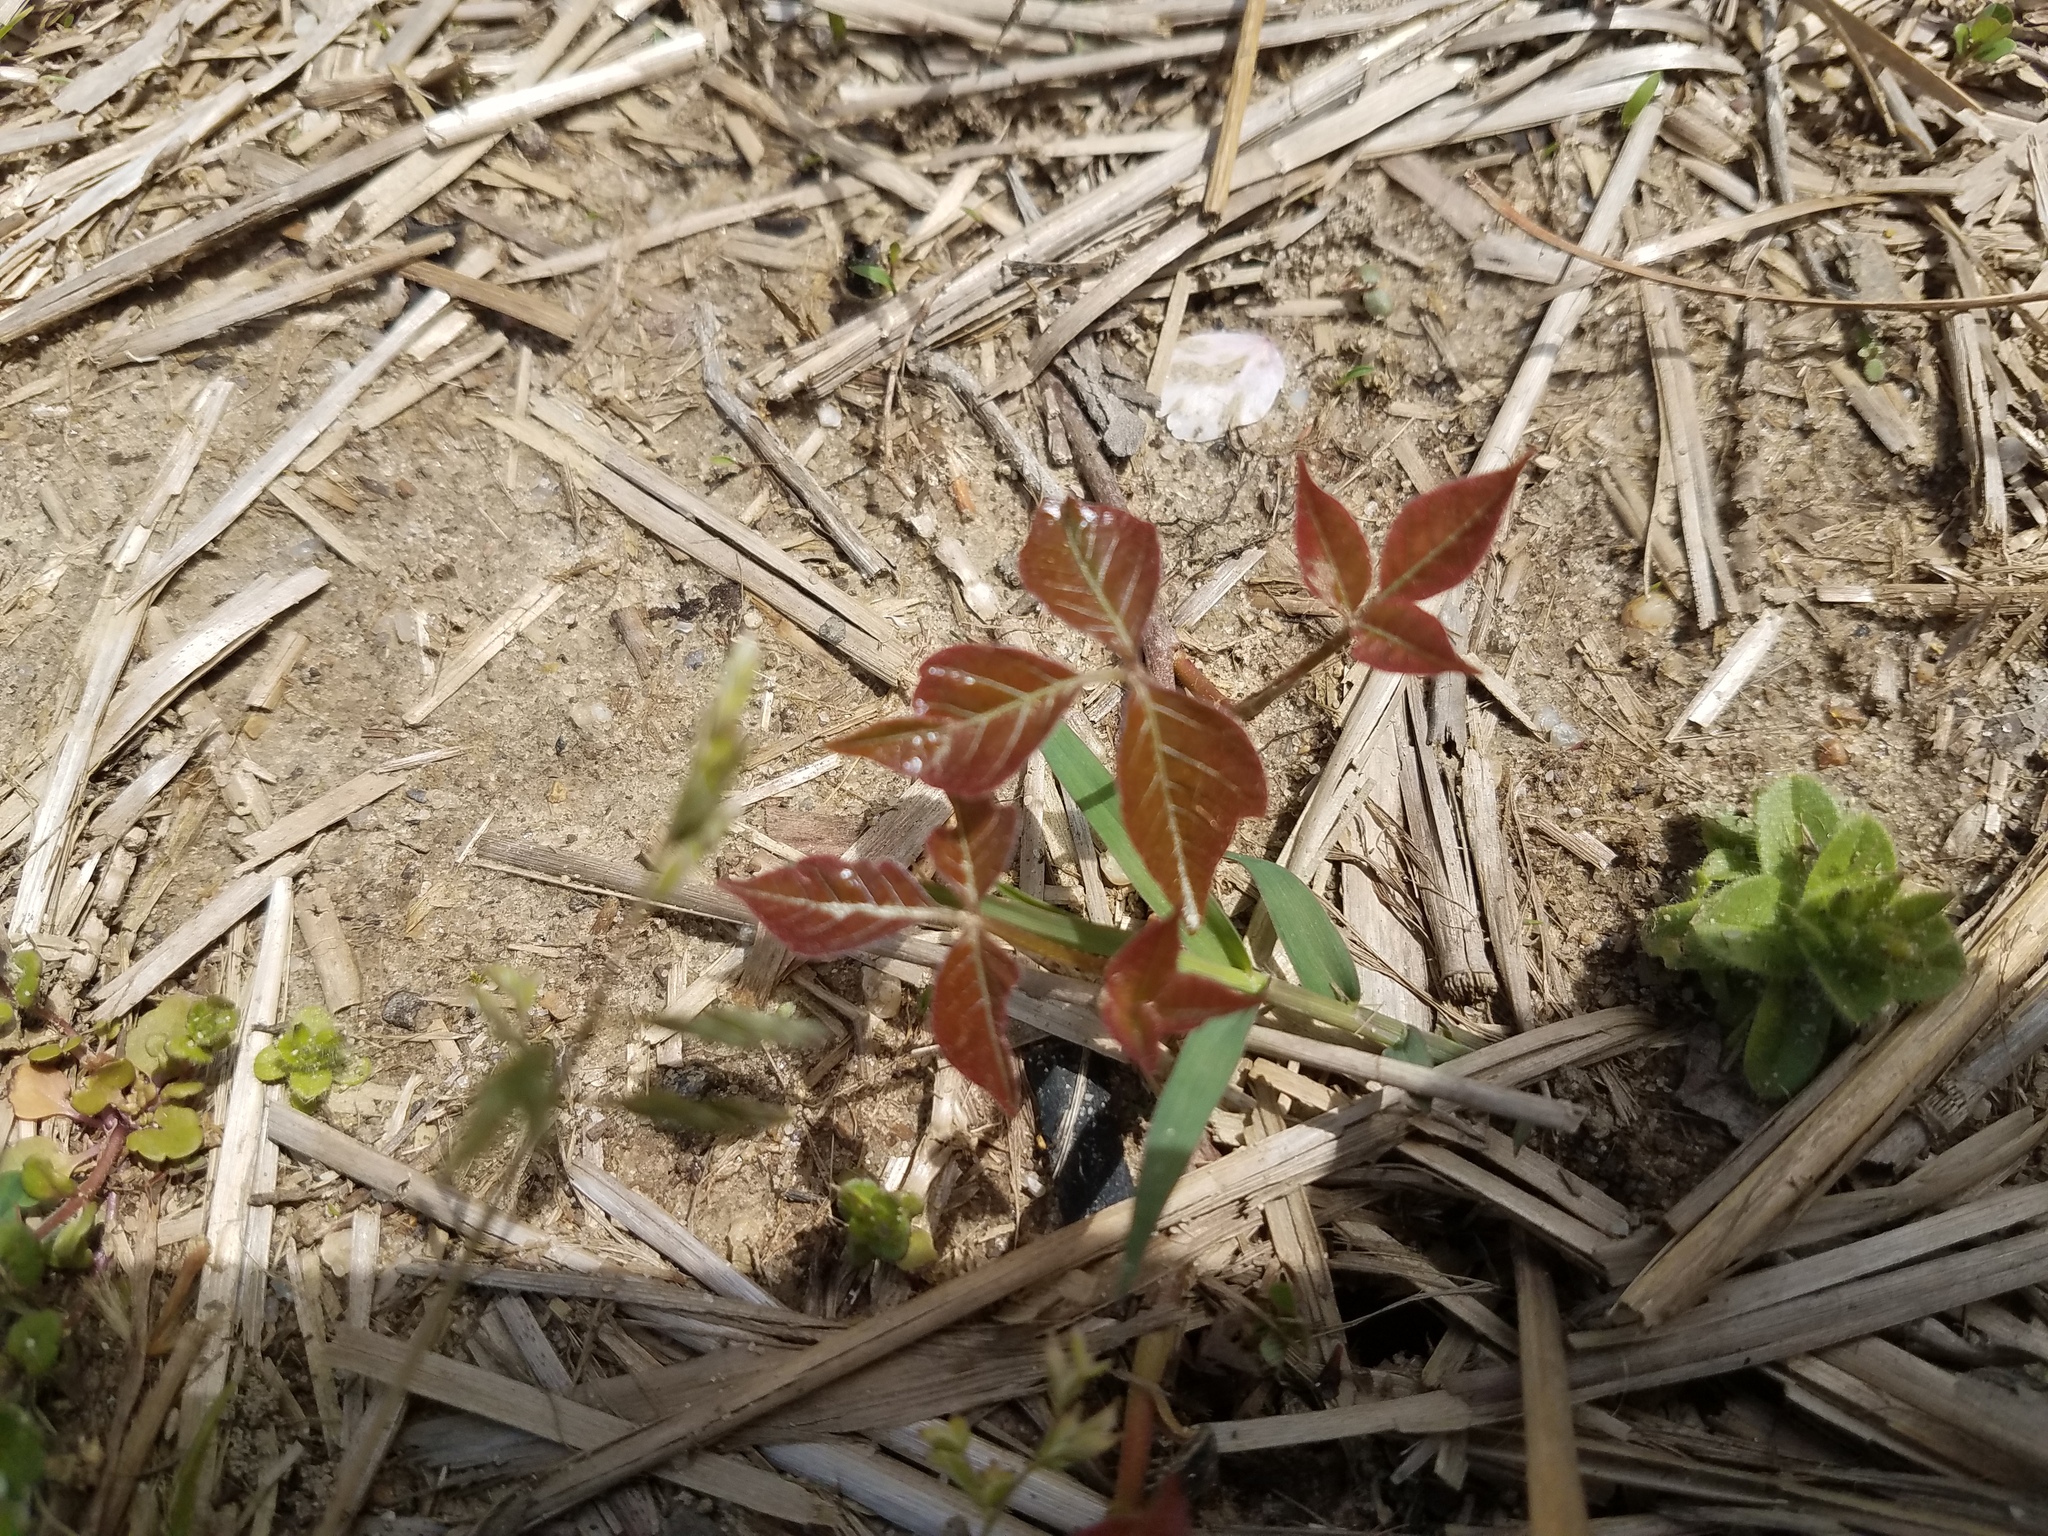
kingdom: Plantae
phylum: Tracheophyta
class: Magnoliopsida
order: Sapindales
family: Anacardiaceae
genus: Toxicodendron
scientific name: Toxicodendron radicans
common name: Poison ivy
